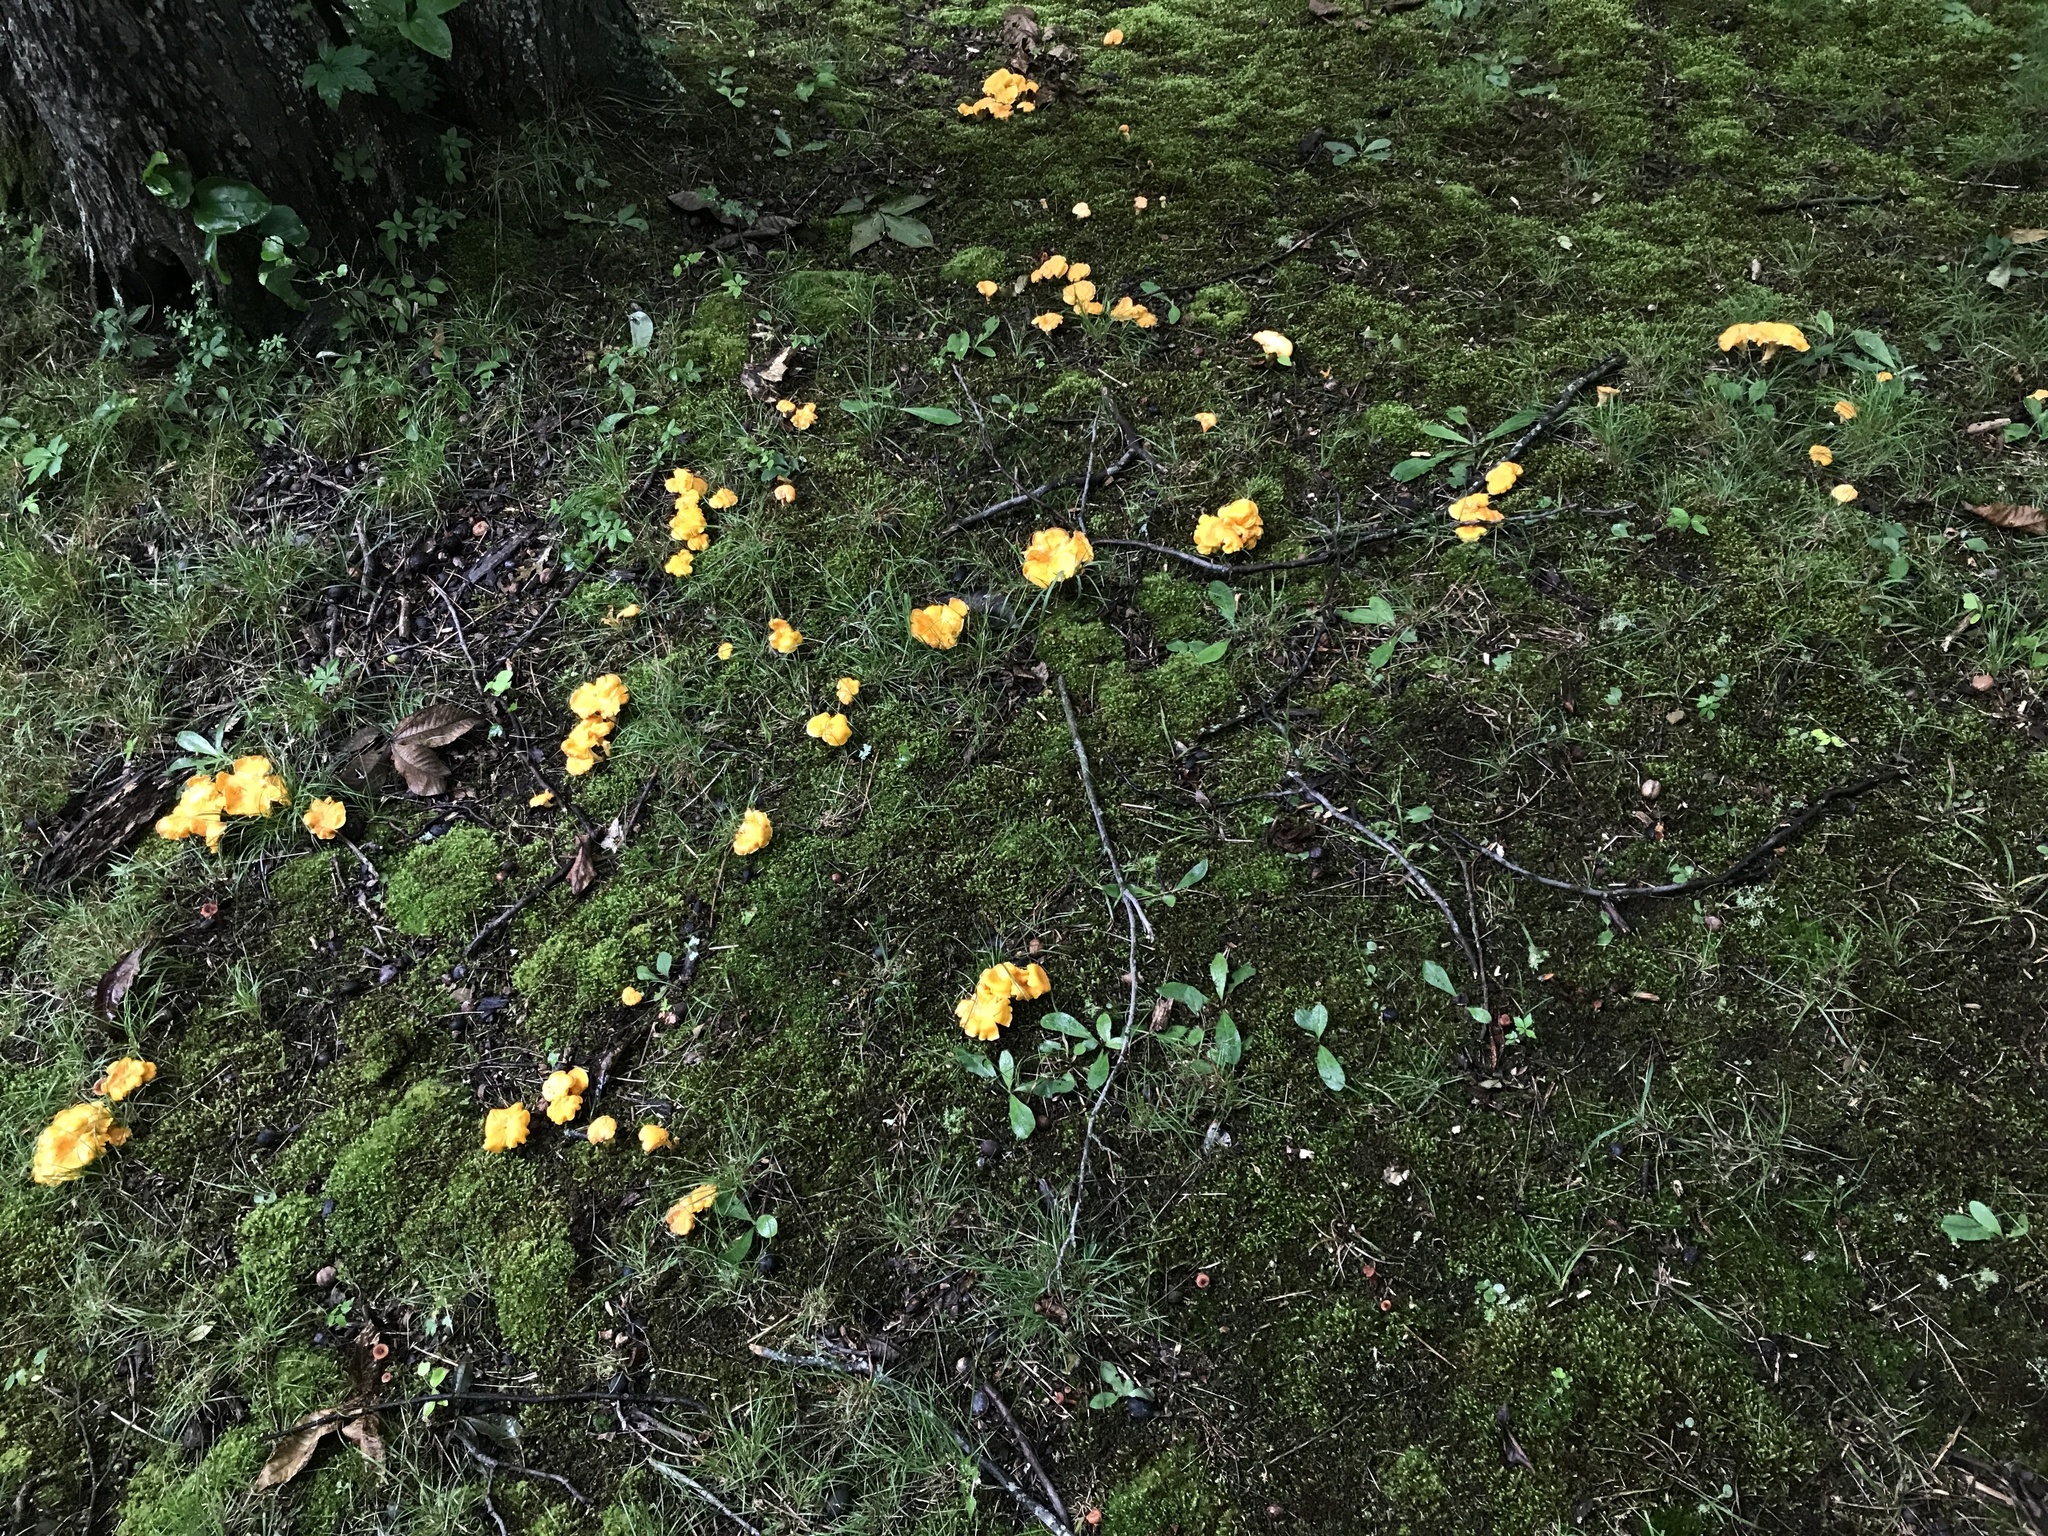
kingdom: Fungi
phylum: Basidiomycota
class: Agaricomycetes
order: Cantharellales
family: Hydnaceae
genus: Cantharellus
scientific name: Cantharellus flavolateritius
